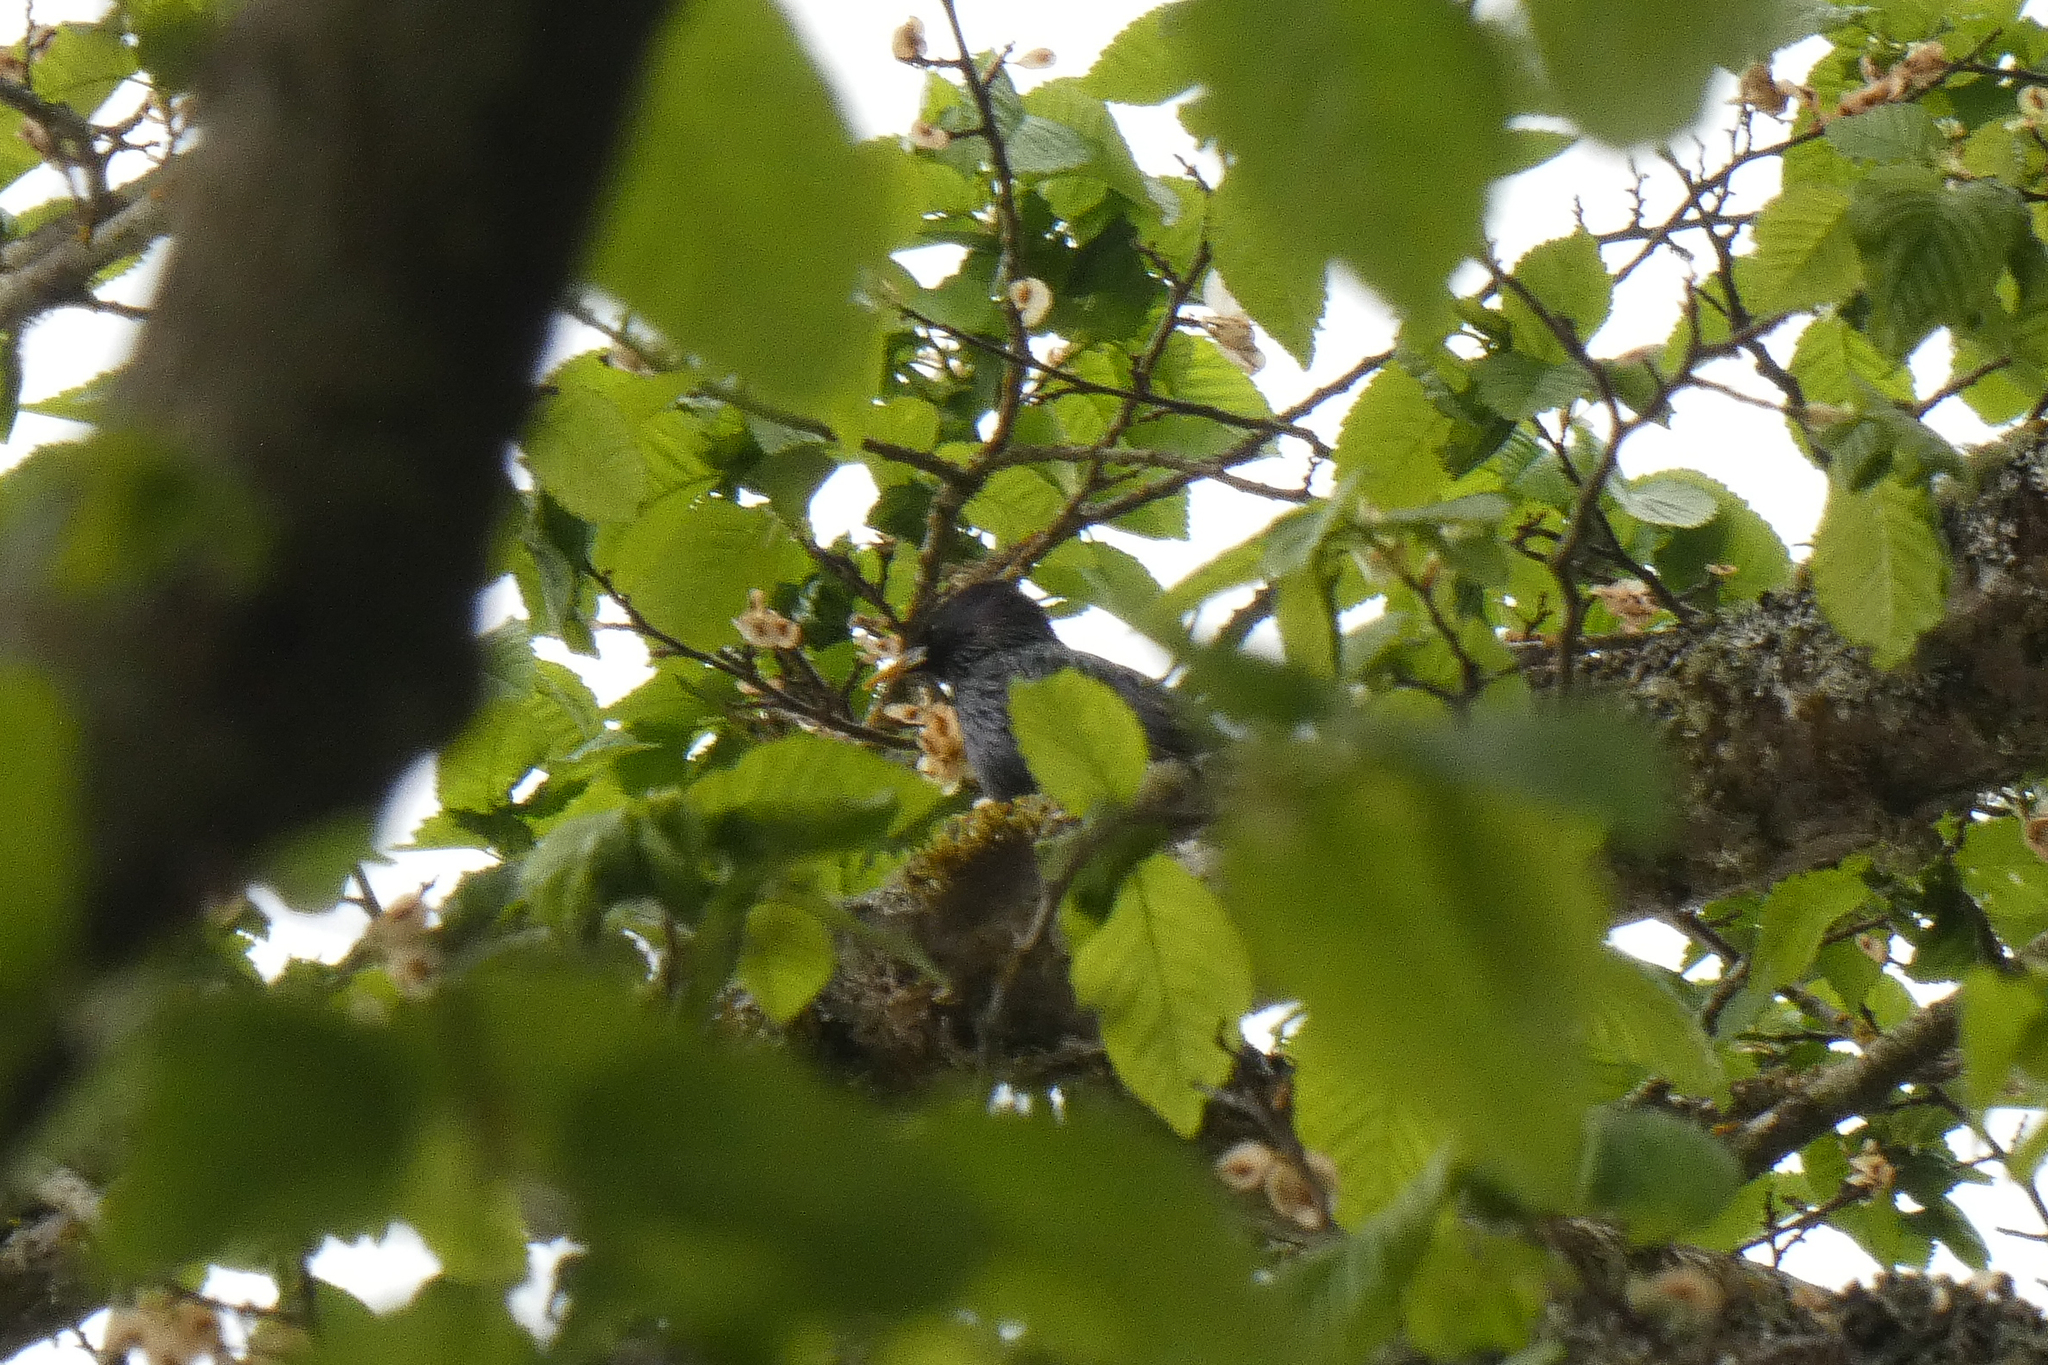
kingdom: Animalia
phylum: Chordata
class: Aves
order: Passeriformes
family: Sturnidae
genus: Sturnus
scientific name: Sturnus vulgaris
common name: Common starling
